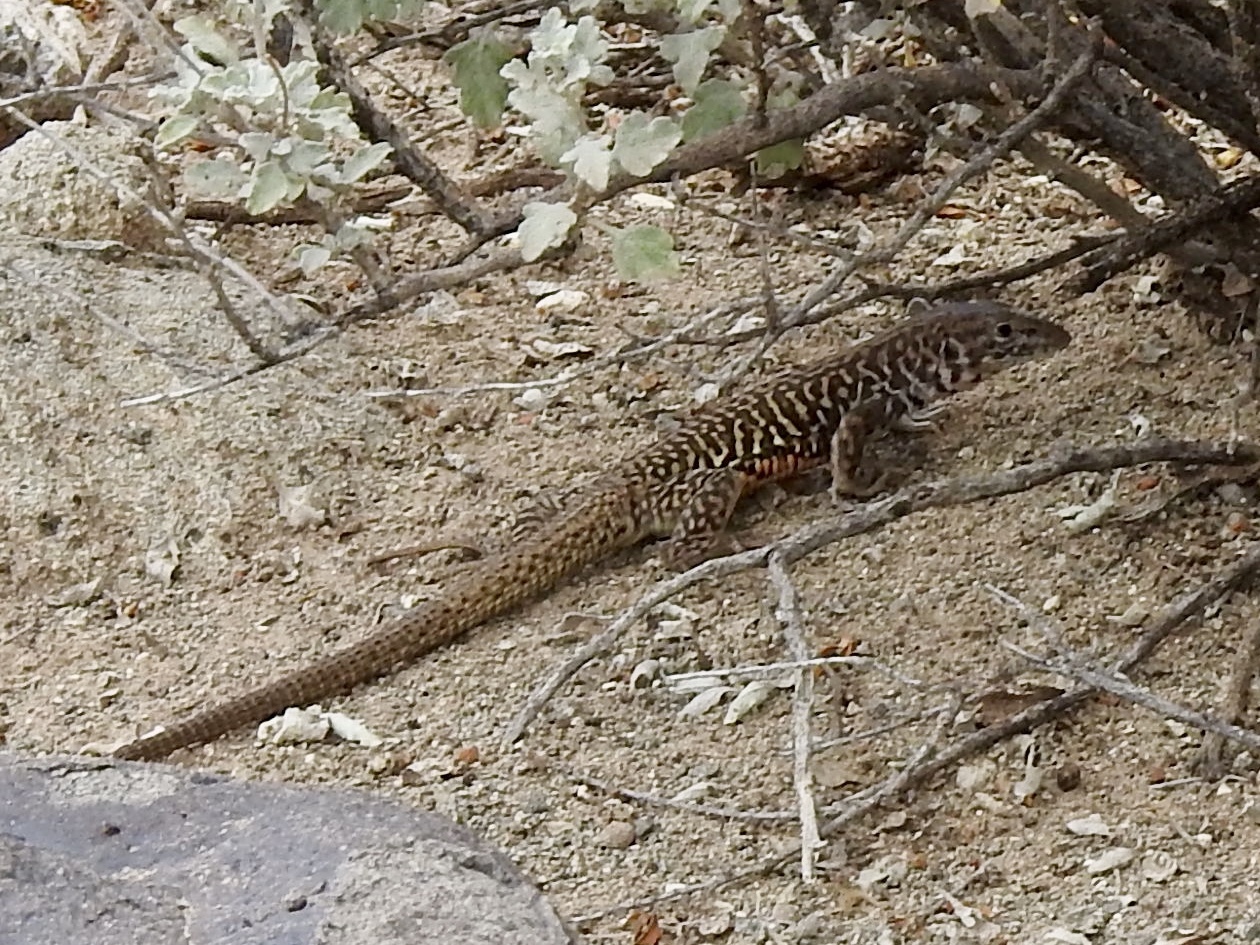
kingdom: Animalia
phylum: Chordata
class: Squamata
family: Teiidae
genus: Aspidoscelis
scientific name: Aspidoscelis marmoratus
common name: Eastern marbled whiptail [reticuloriens]
